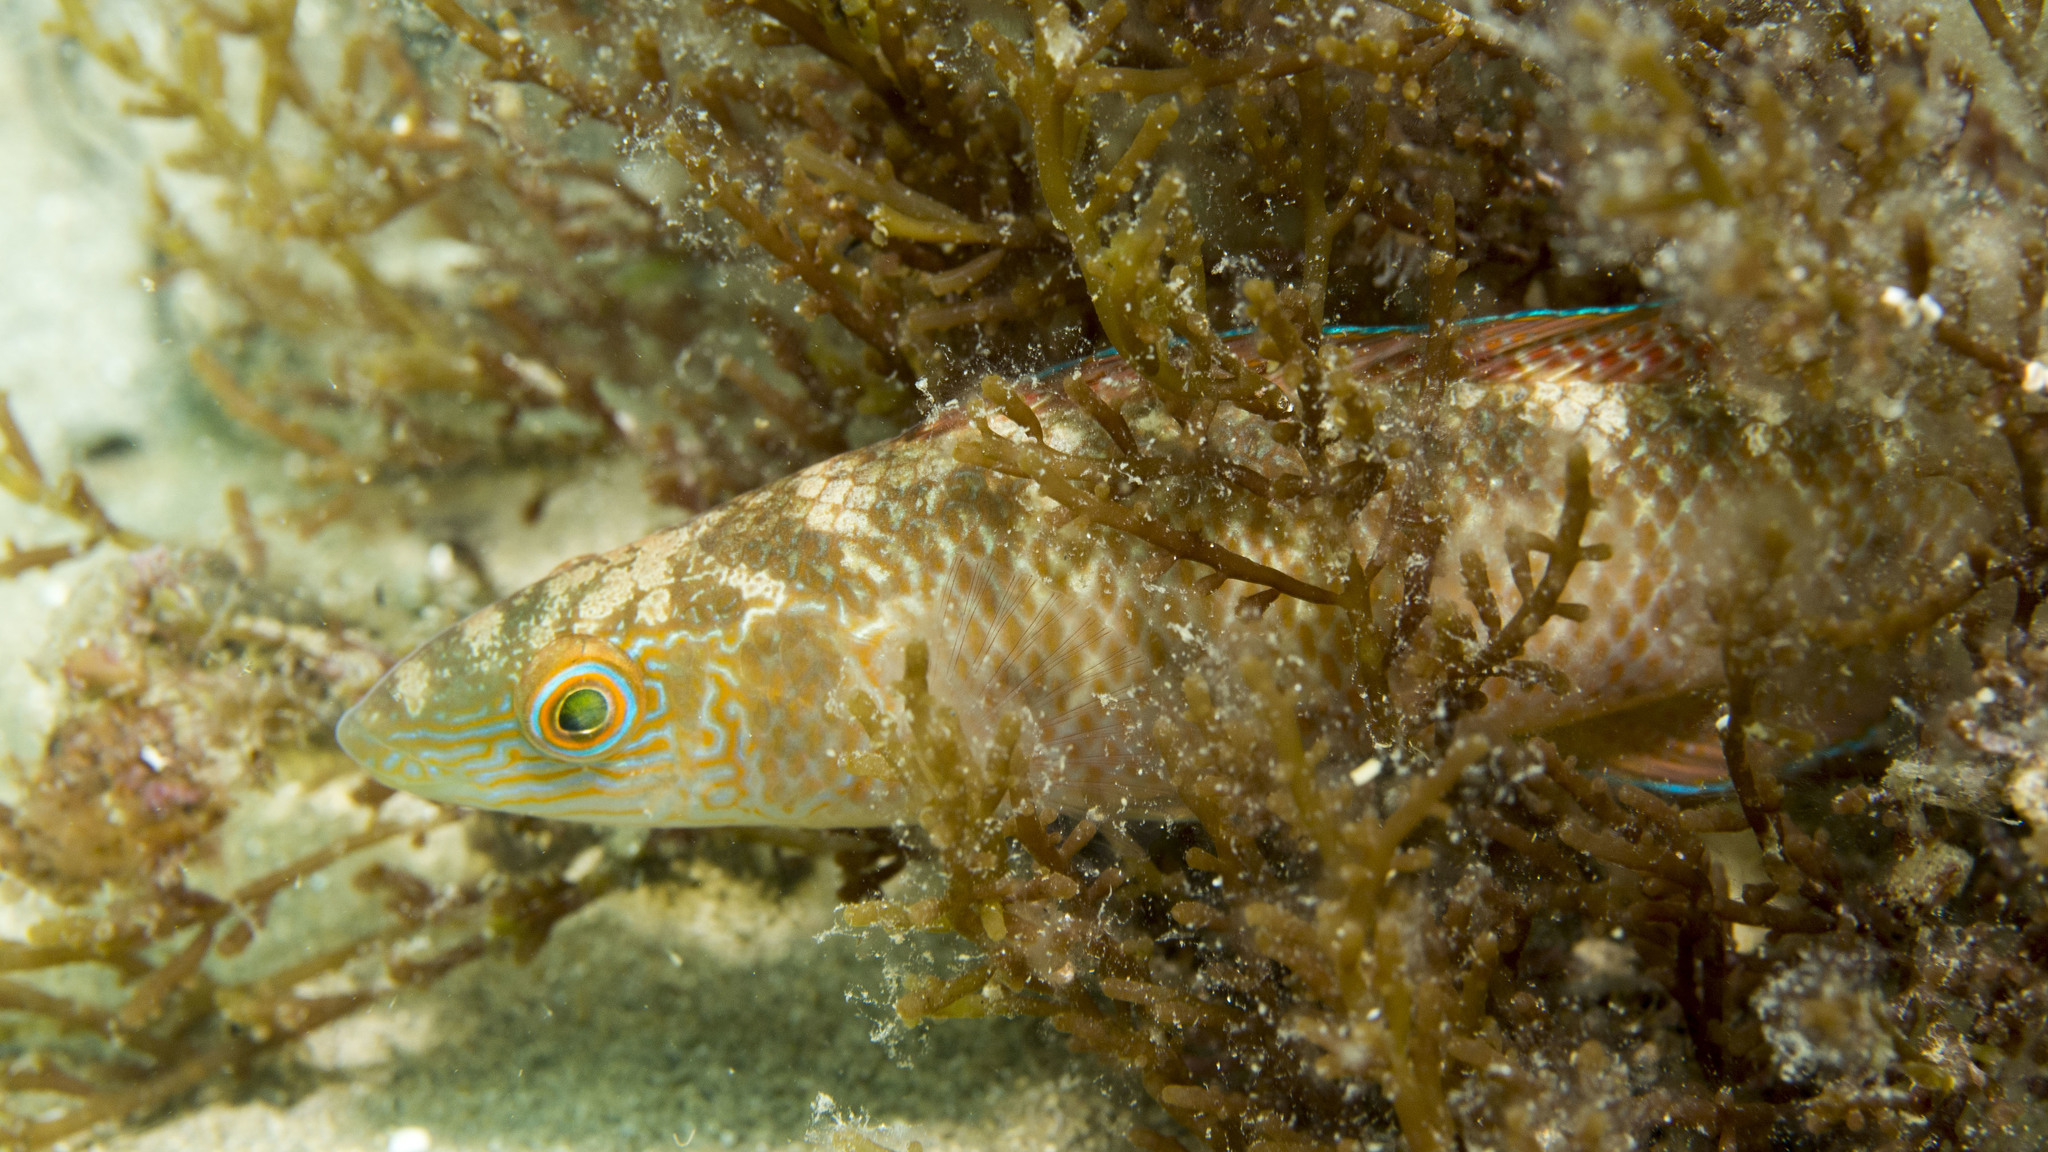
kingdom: Animalia
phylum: Chordata
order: Perciformes
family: Odacidae
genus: Neoodax
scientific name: Neoodax balteatus
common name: Ground mullet
